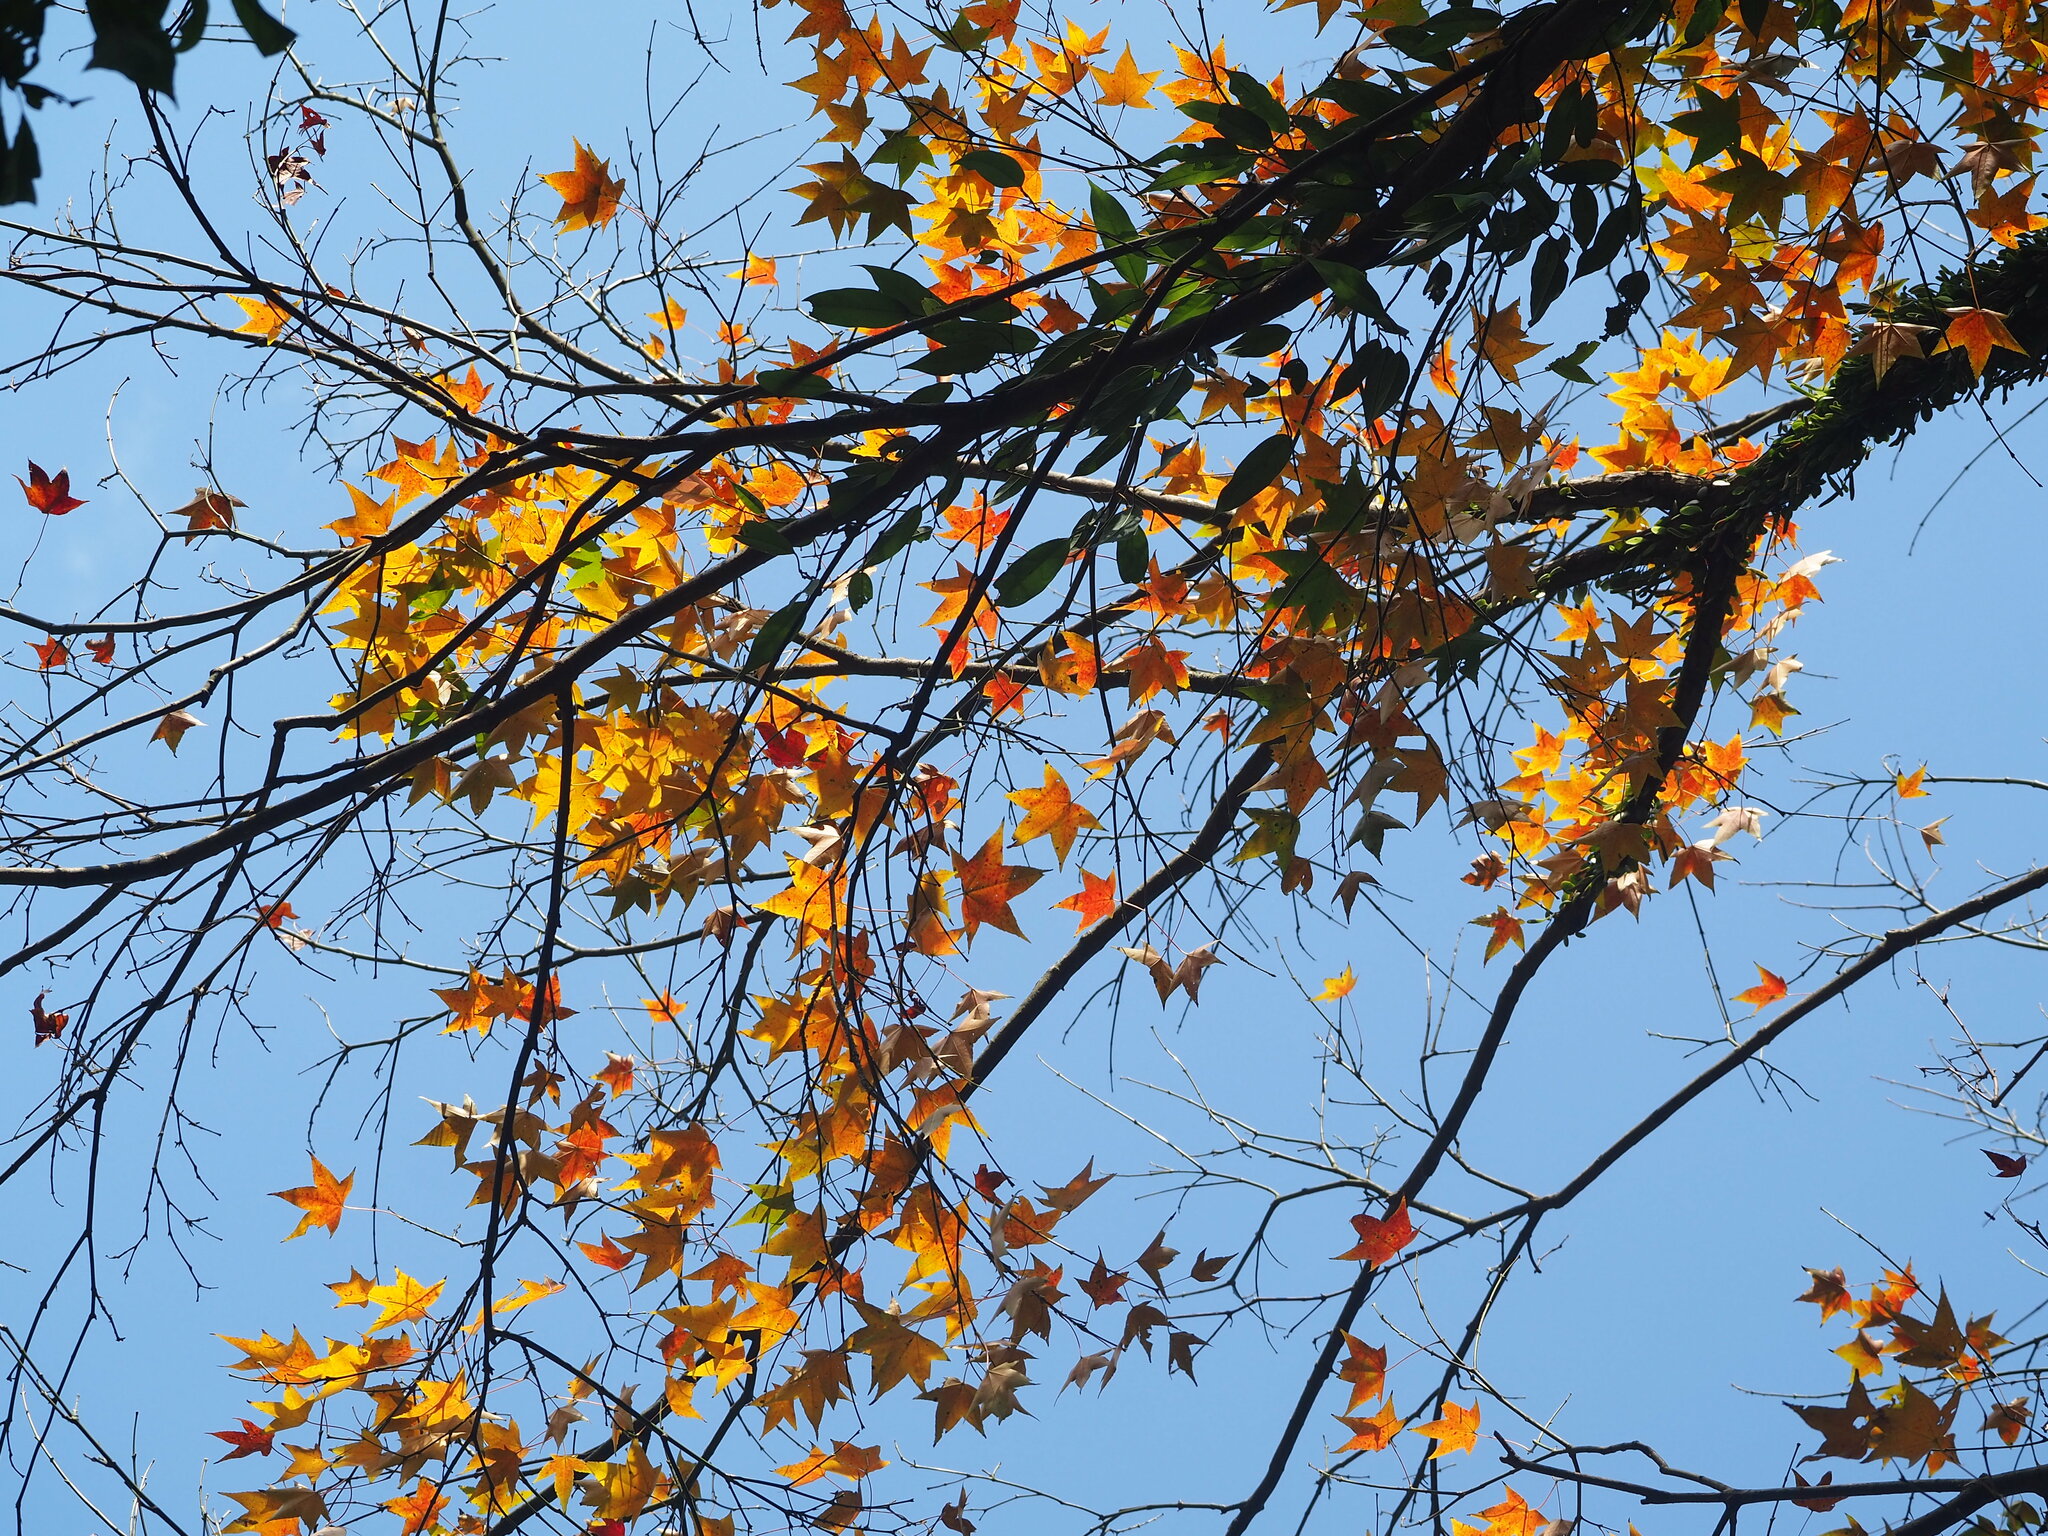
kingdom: Plantae
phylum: Tracheophyta
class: Magnoliopsida
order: Sapindales
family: Sapindaceae
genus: Acer
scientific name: Acer serrulatum
